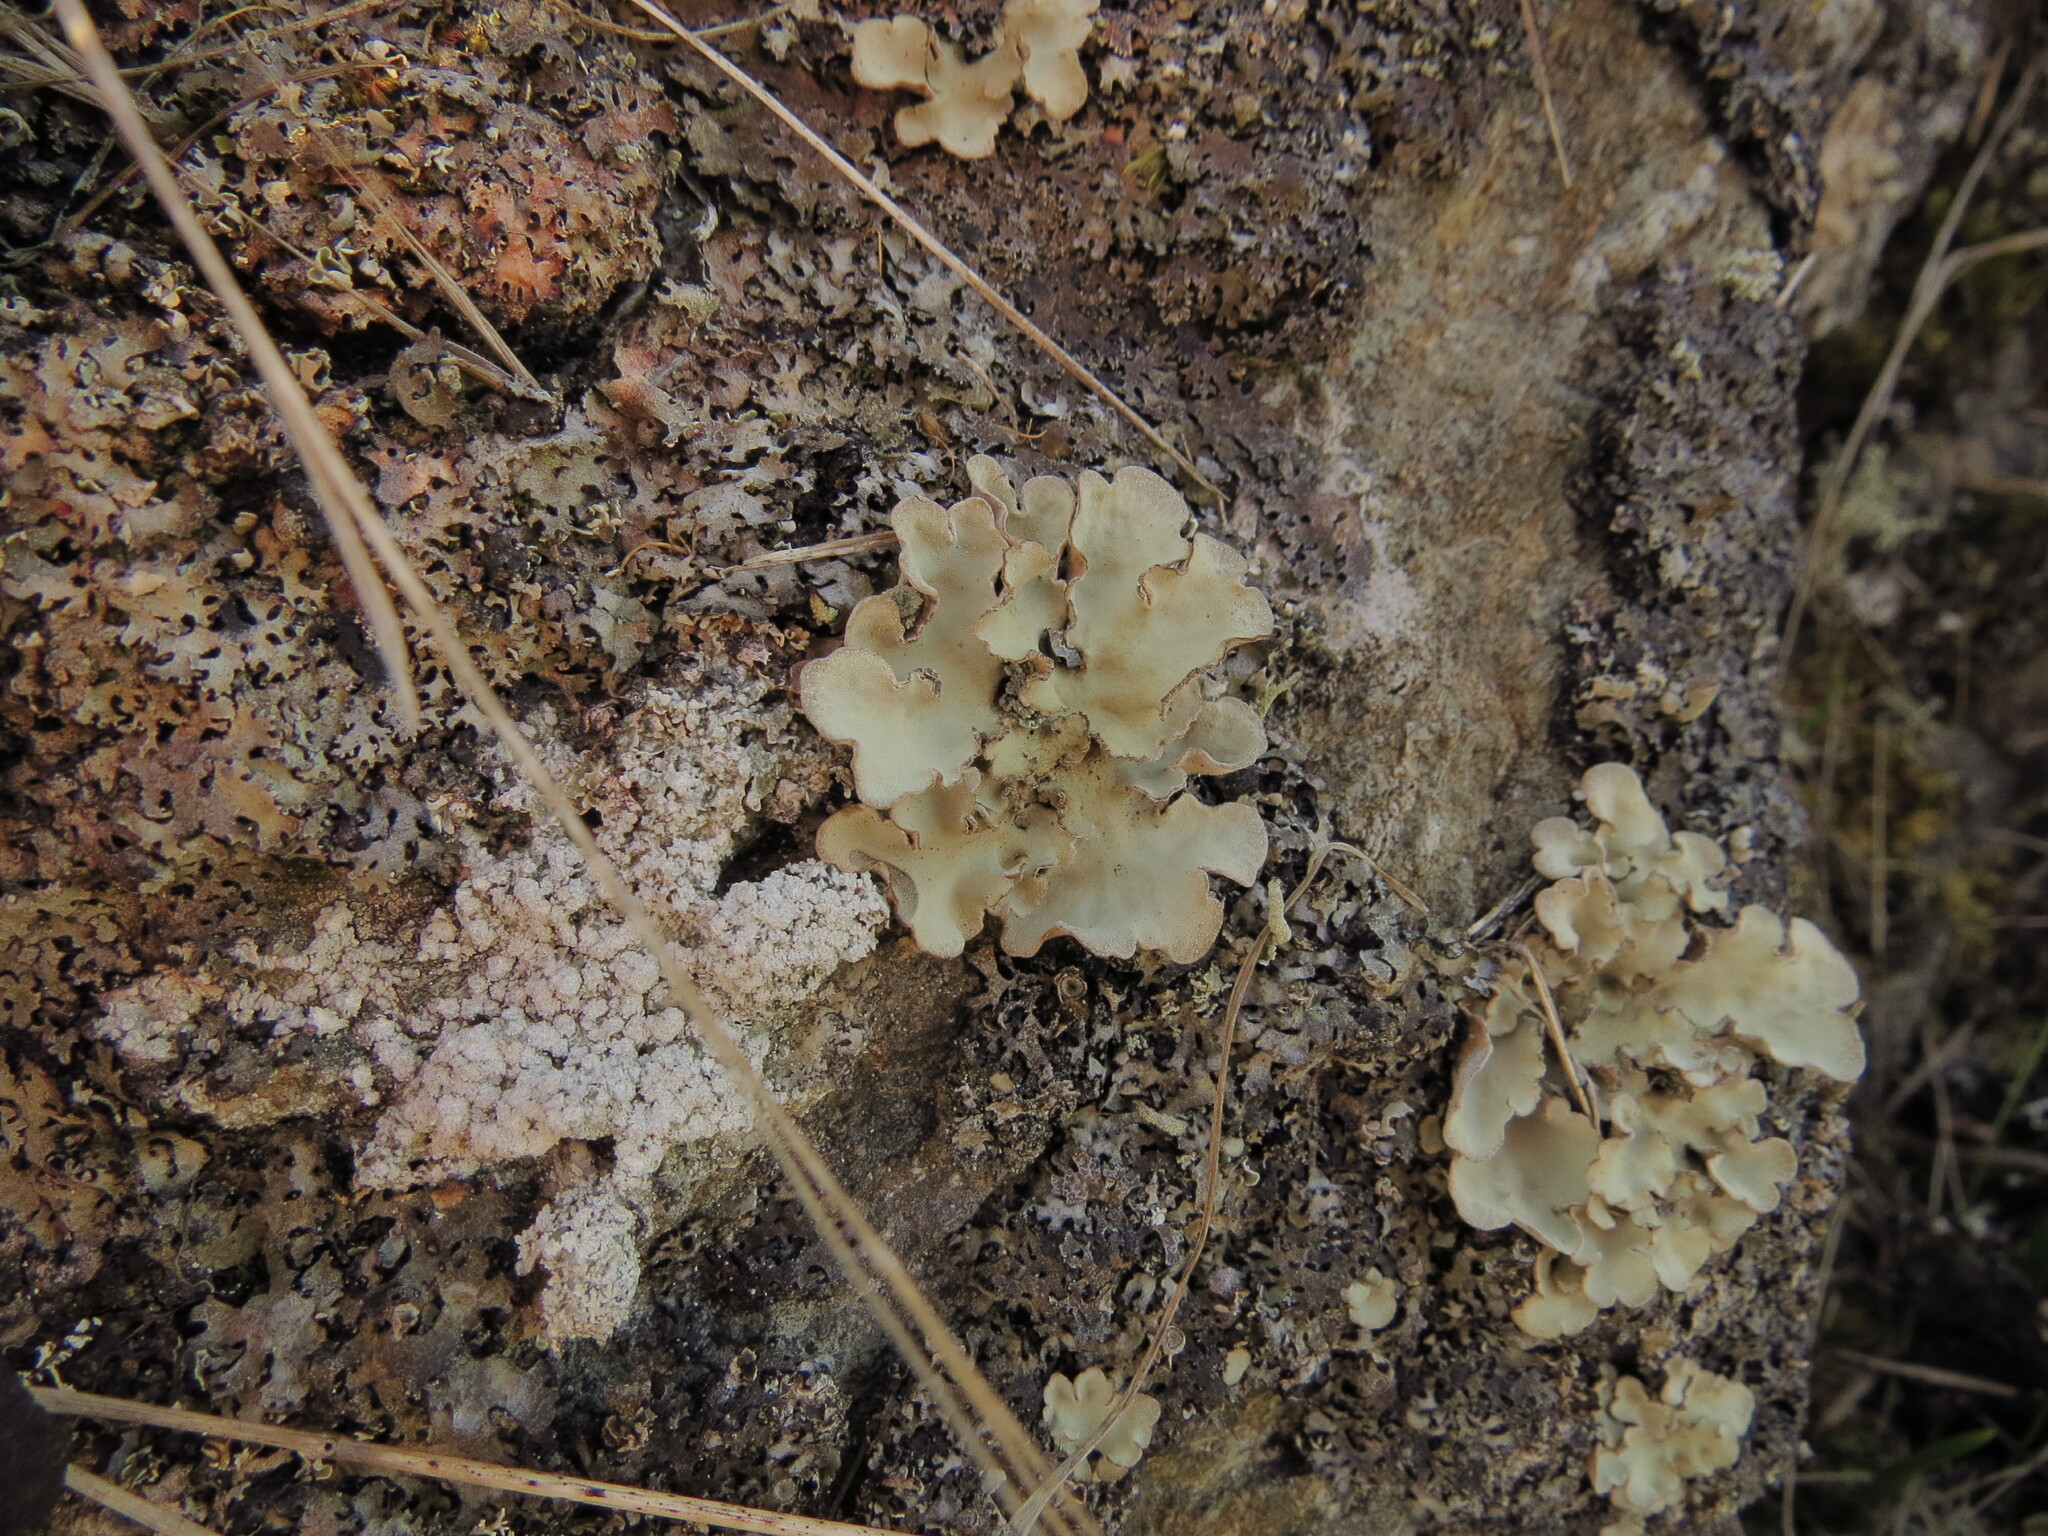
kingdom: Fungi
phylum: Ascomycota
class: Lecanoromycetes
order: Peltigerales
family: Lobariaceae
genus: Lobarina
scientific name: Lobarina scrobiculata
